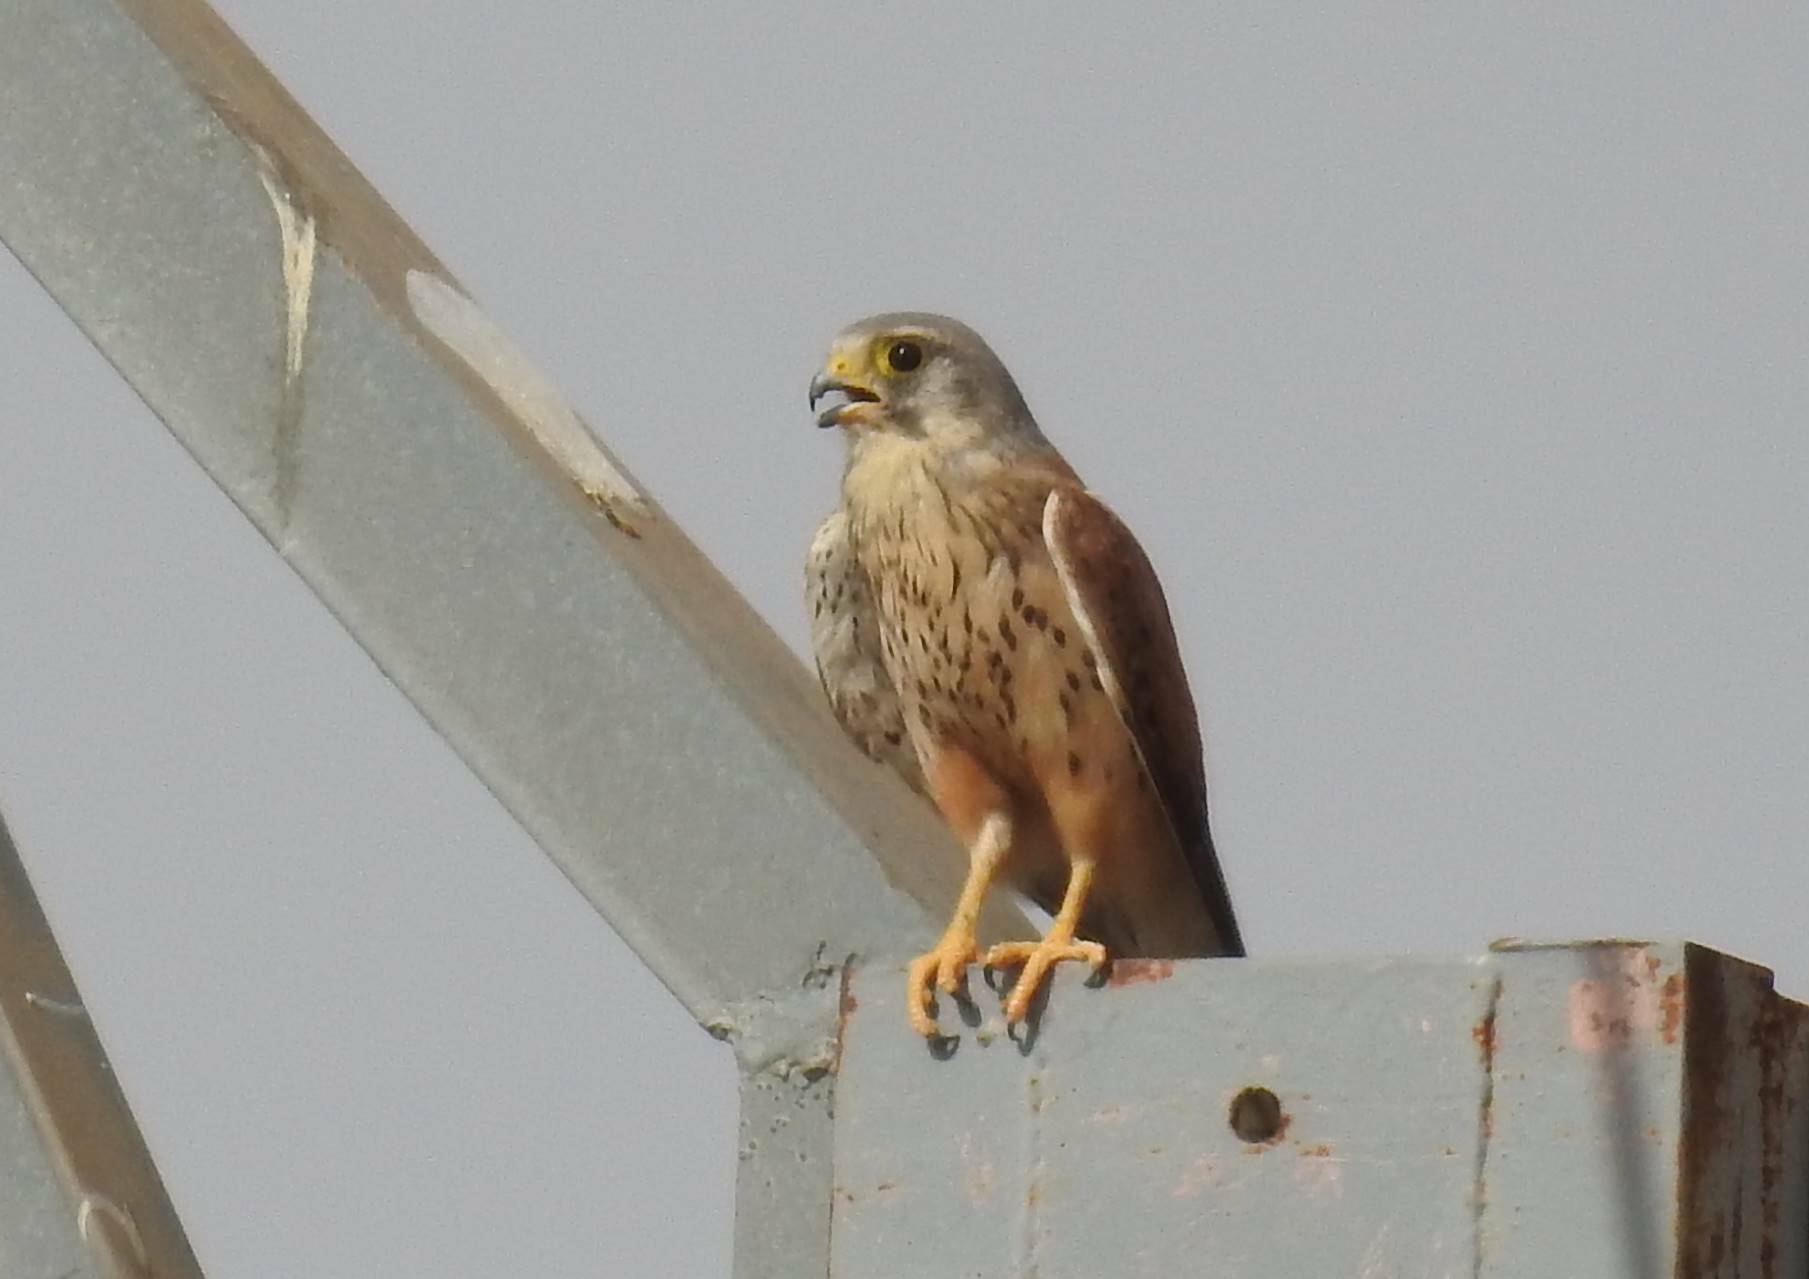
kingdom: Animalia
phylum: Chordata
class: Aves
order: Falconiformes
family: Falconidae
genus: Falco
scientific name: Falco tinnunculus
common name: Common kestrel
